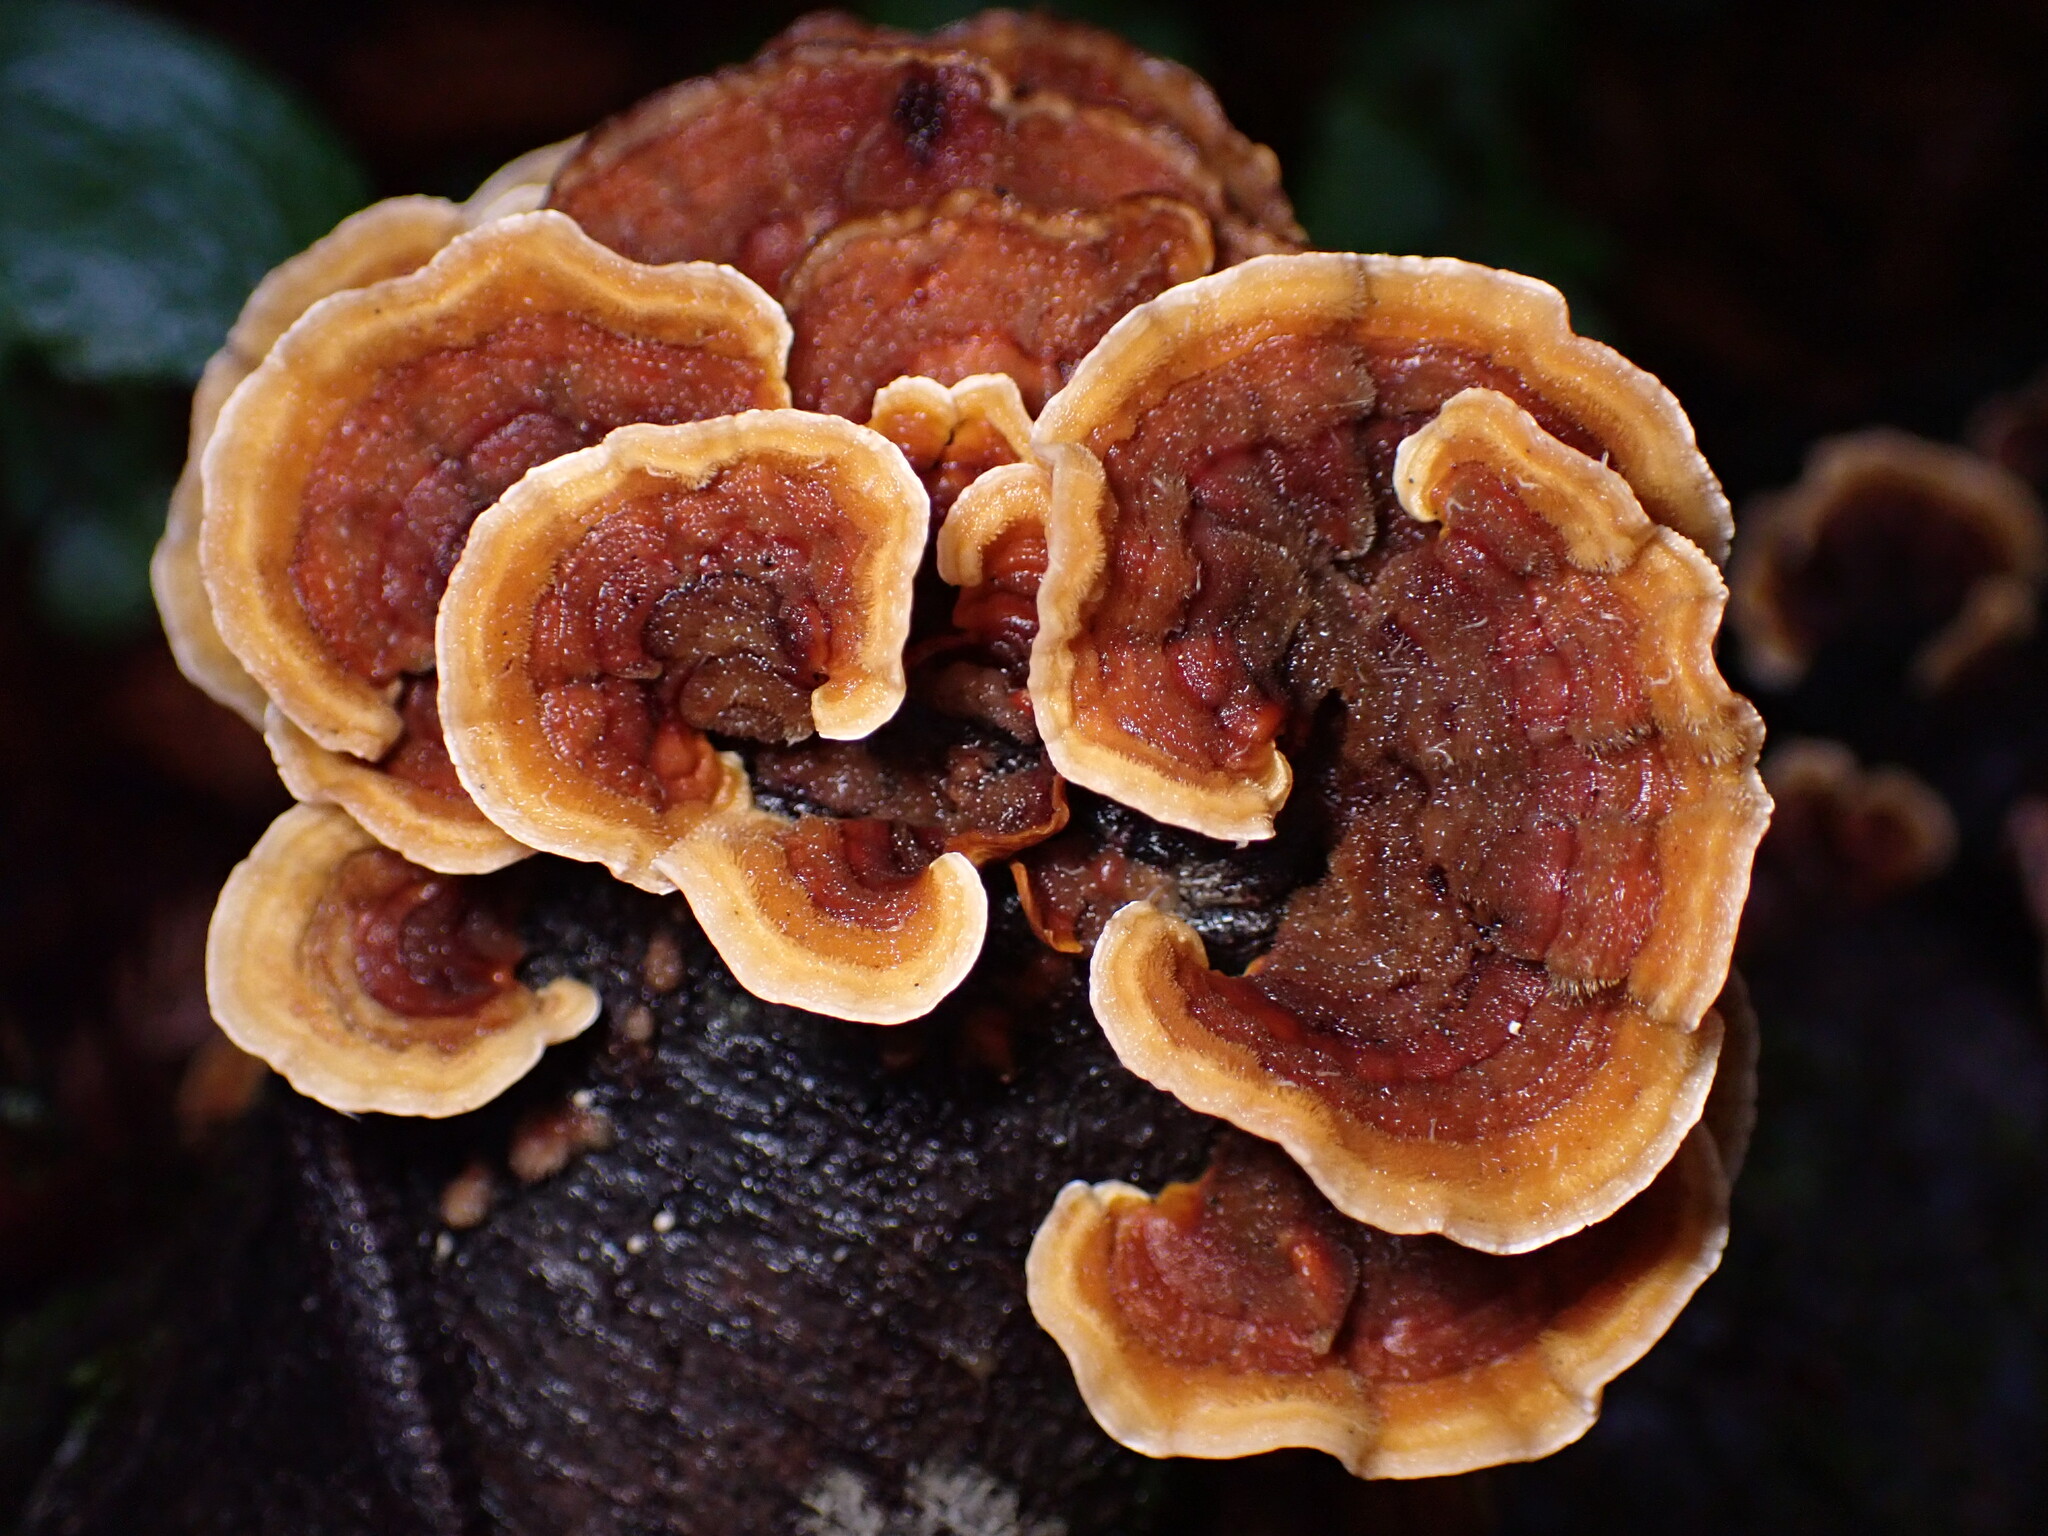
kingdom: Fungi
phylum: Basidiomycota
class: Agaricomycetes
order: Russulales
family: Stereaceae
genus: Stereum
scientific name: Stereum hirsutum
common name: Hairy curtain crust
